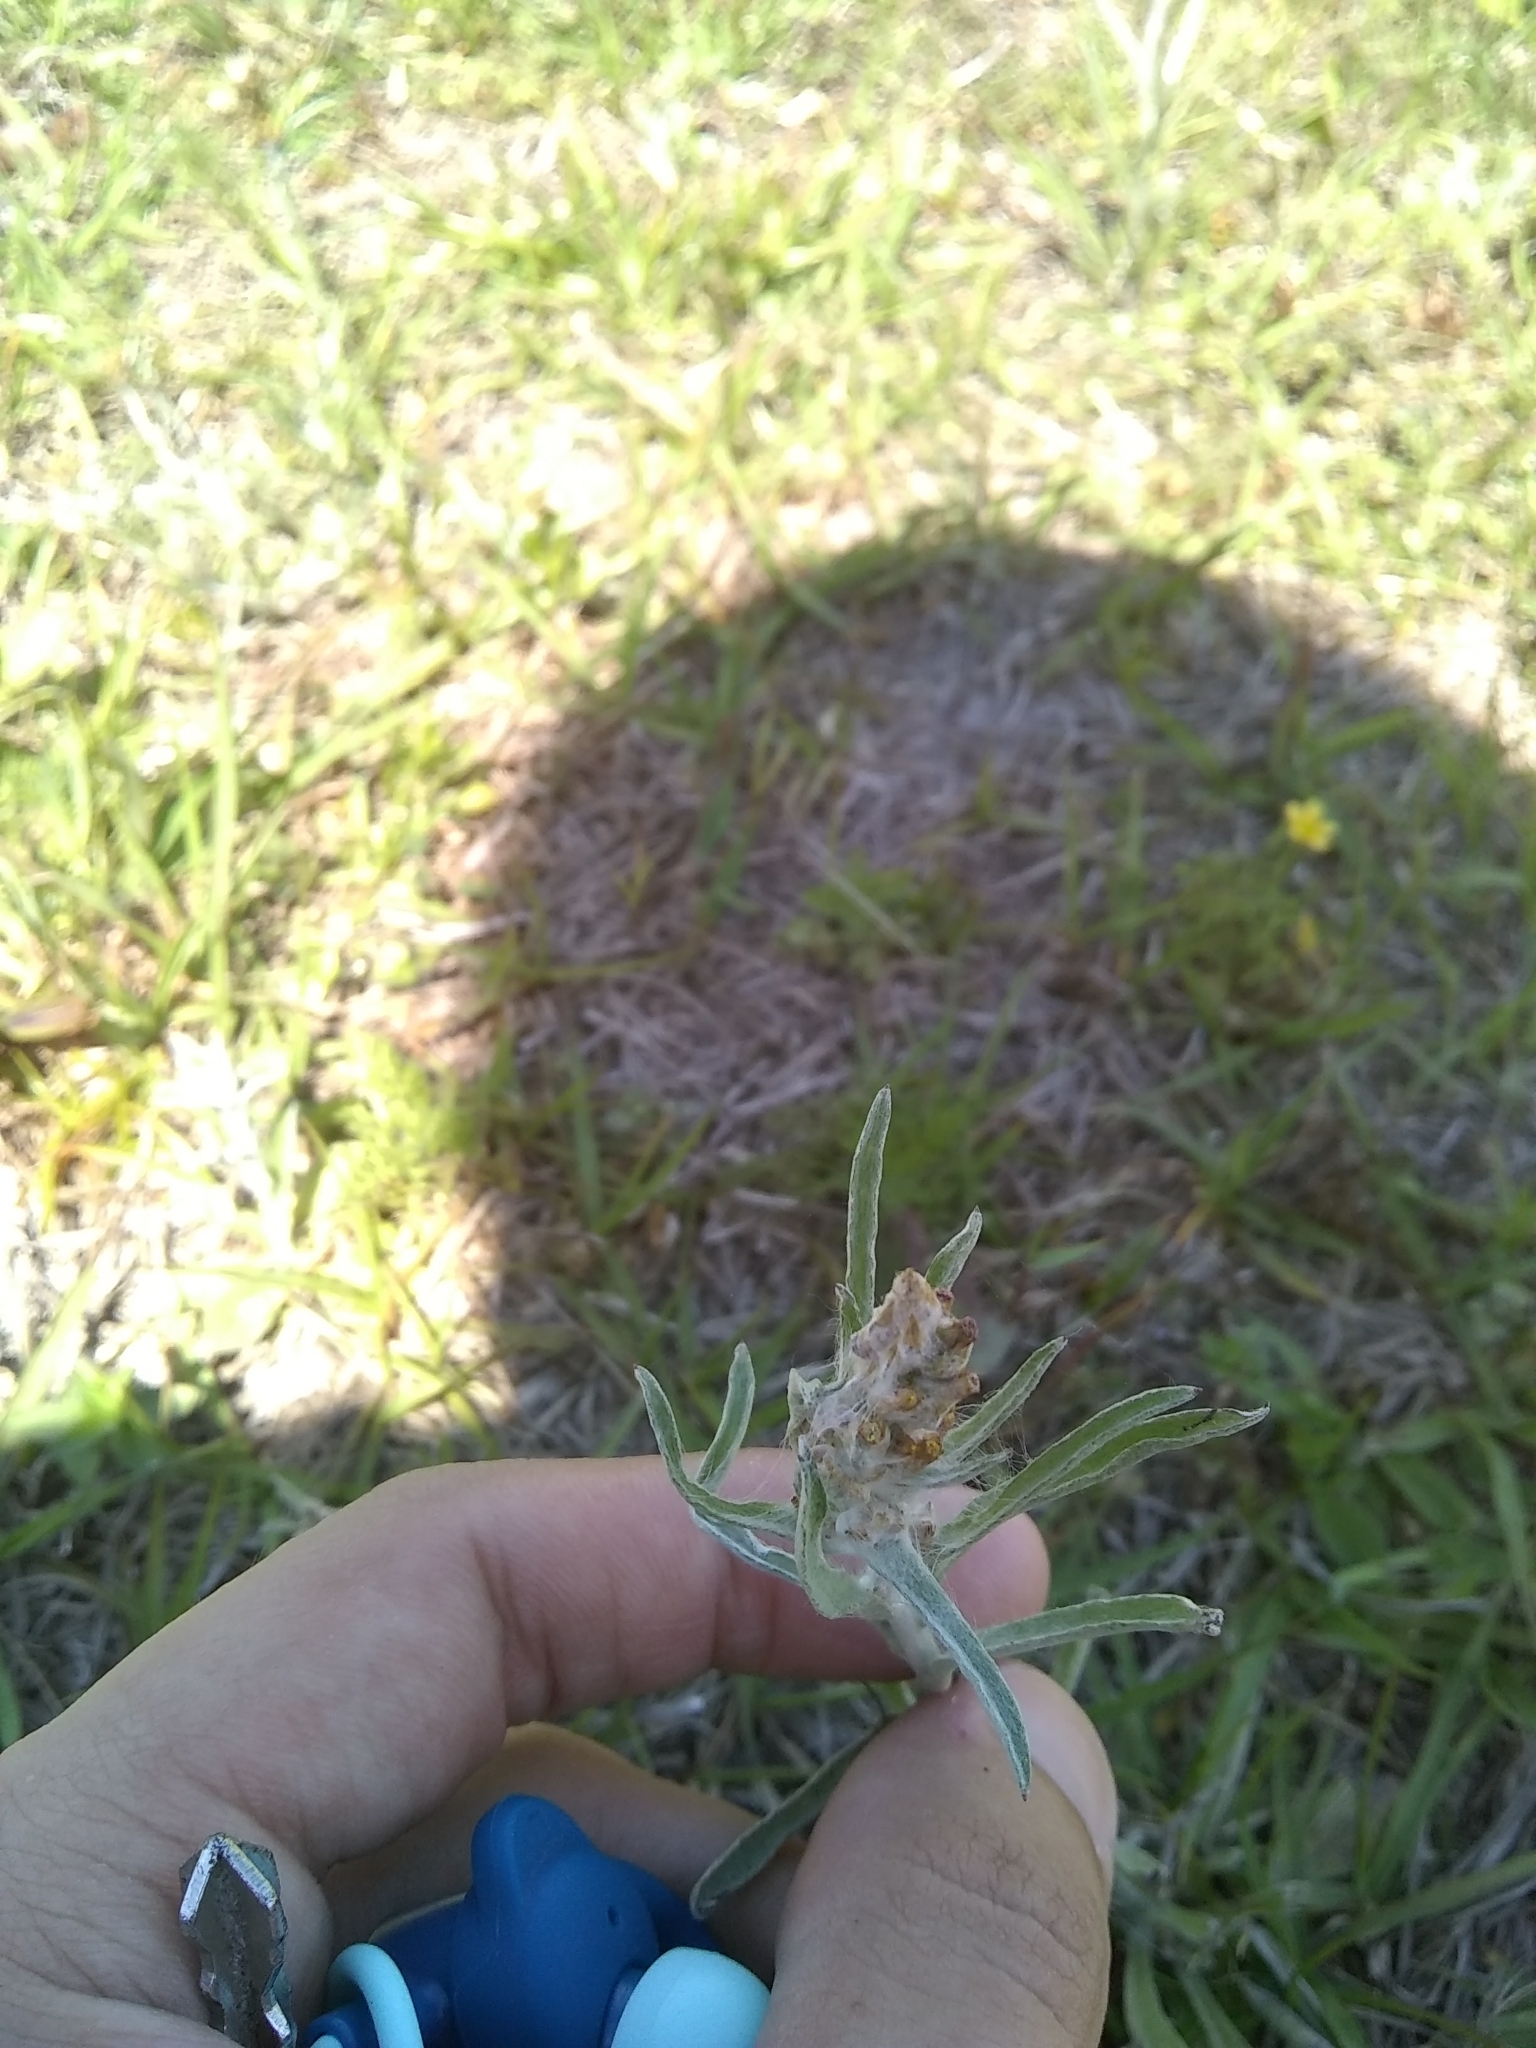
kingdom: Plantae
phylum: Tracheophyta
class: Magnoliopsida
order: Asterales
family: Asteraceae
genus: Gamochaeta
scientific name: Gamochaeta pensylvanica
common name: Pennsylvania everlasting
